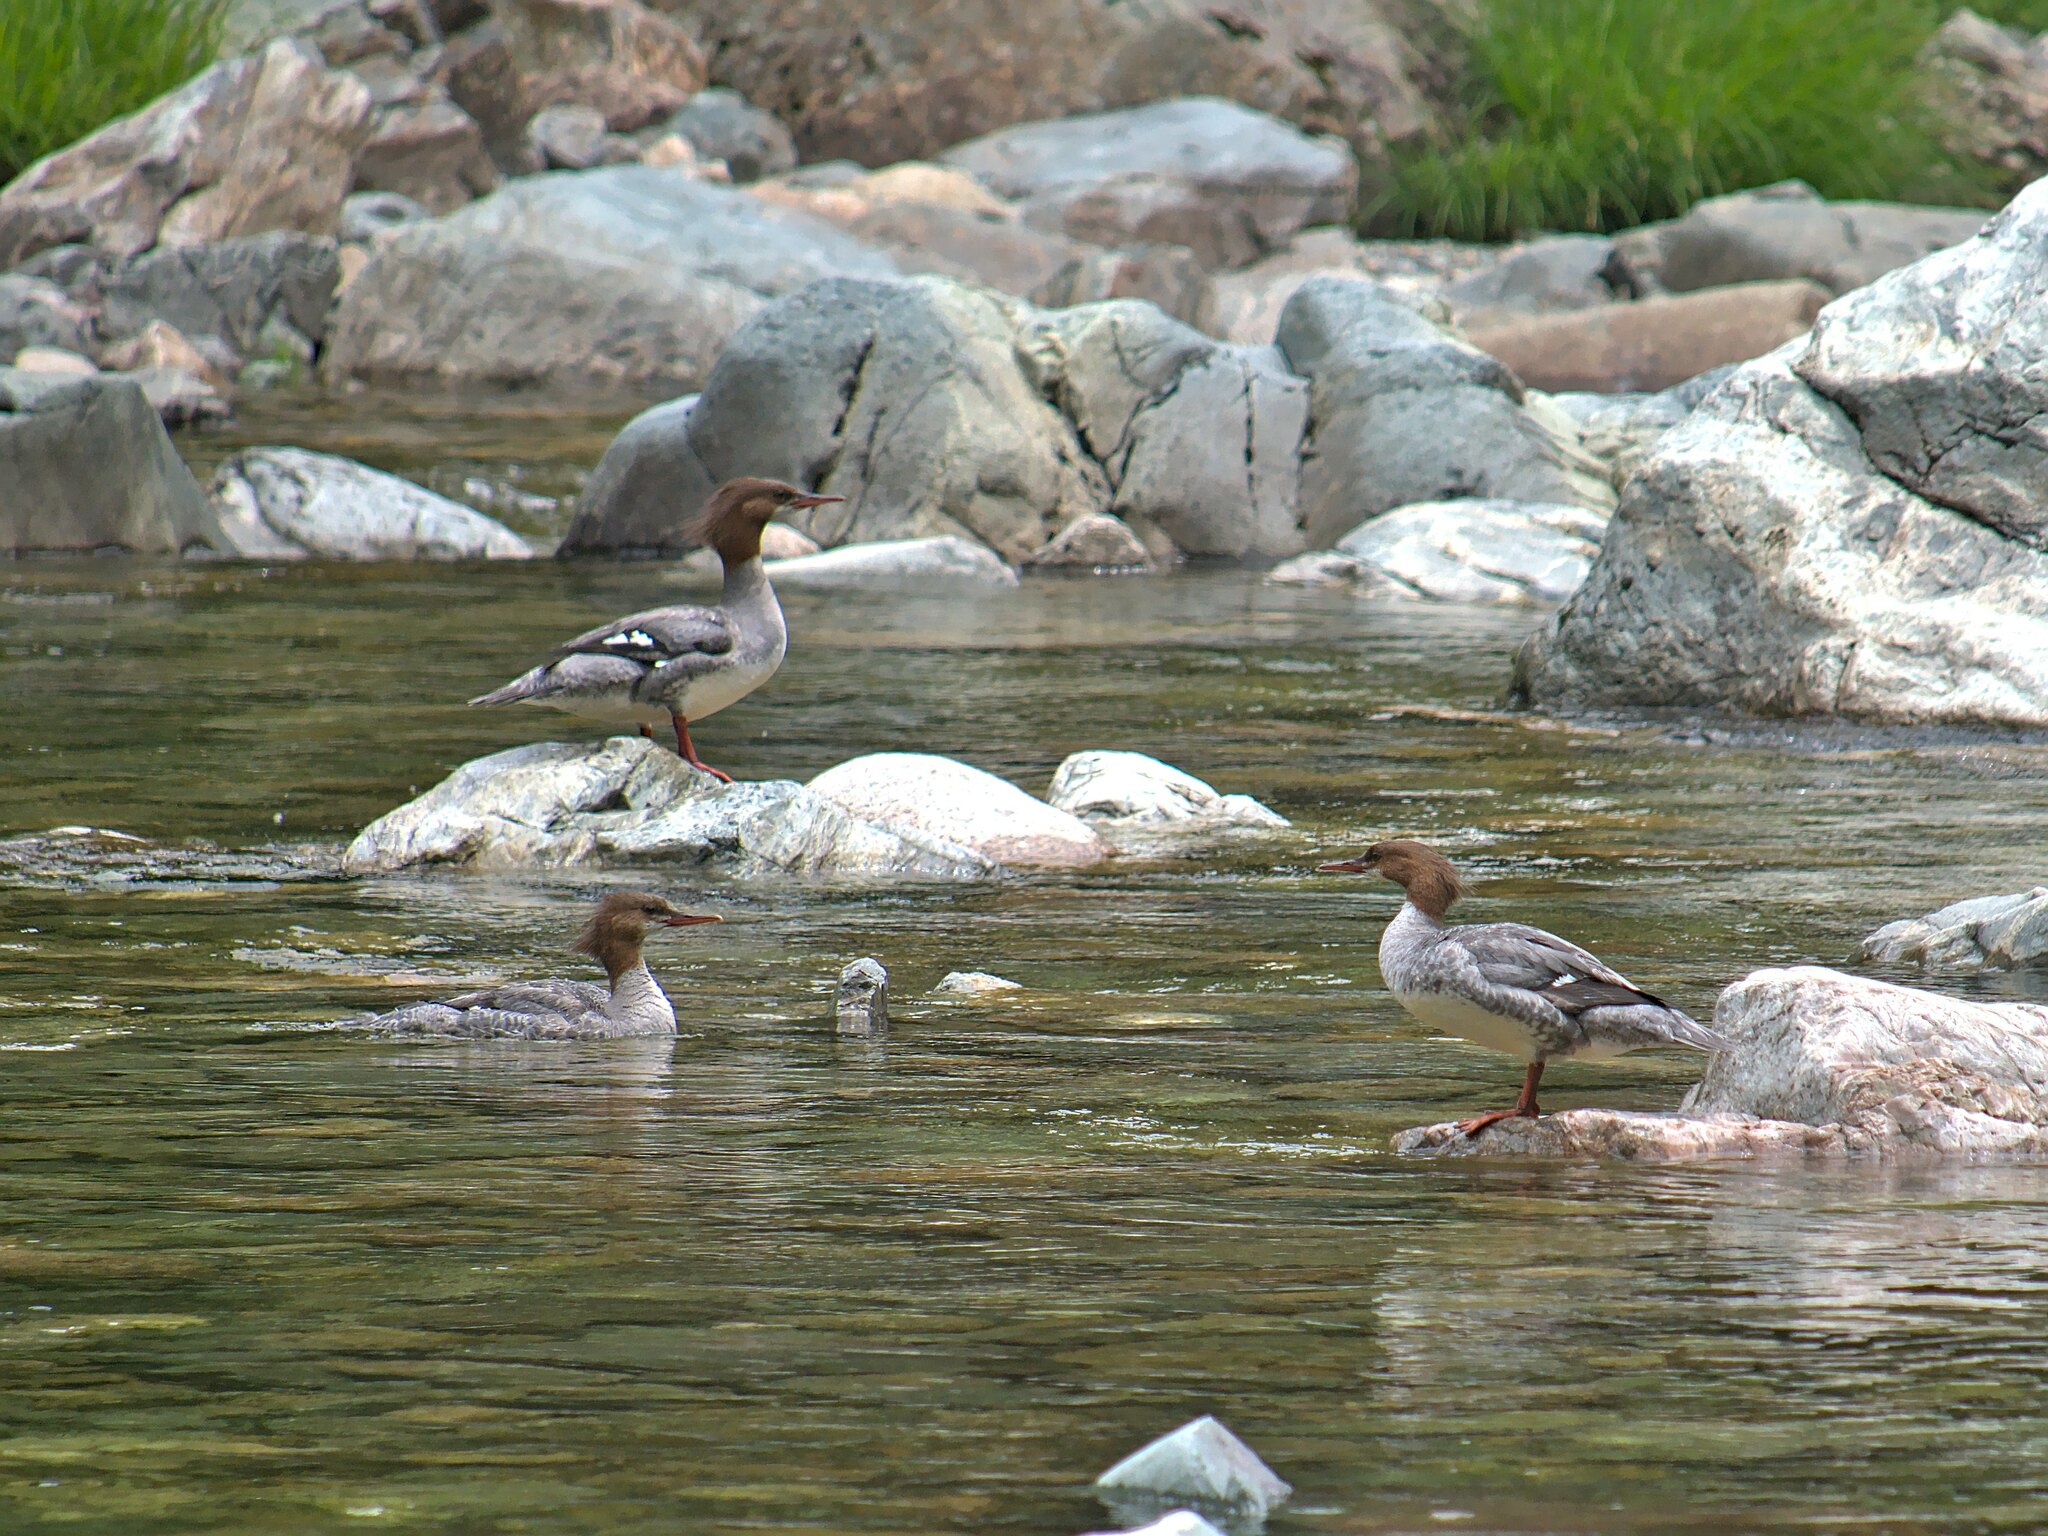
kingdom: Animalia
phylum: Chordata
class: Aves
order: Anseriformes
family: Anatidae
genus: Mergus
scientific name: Mergus merganser
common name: Common merganser
